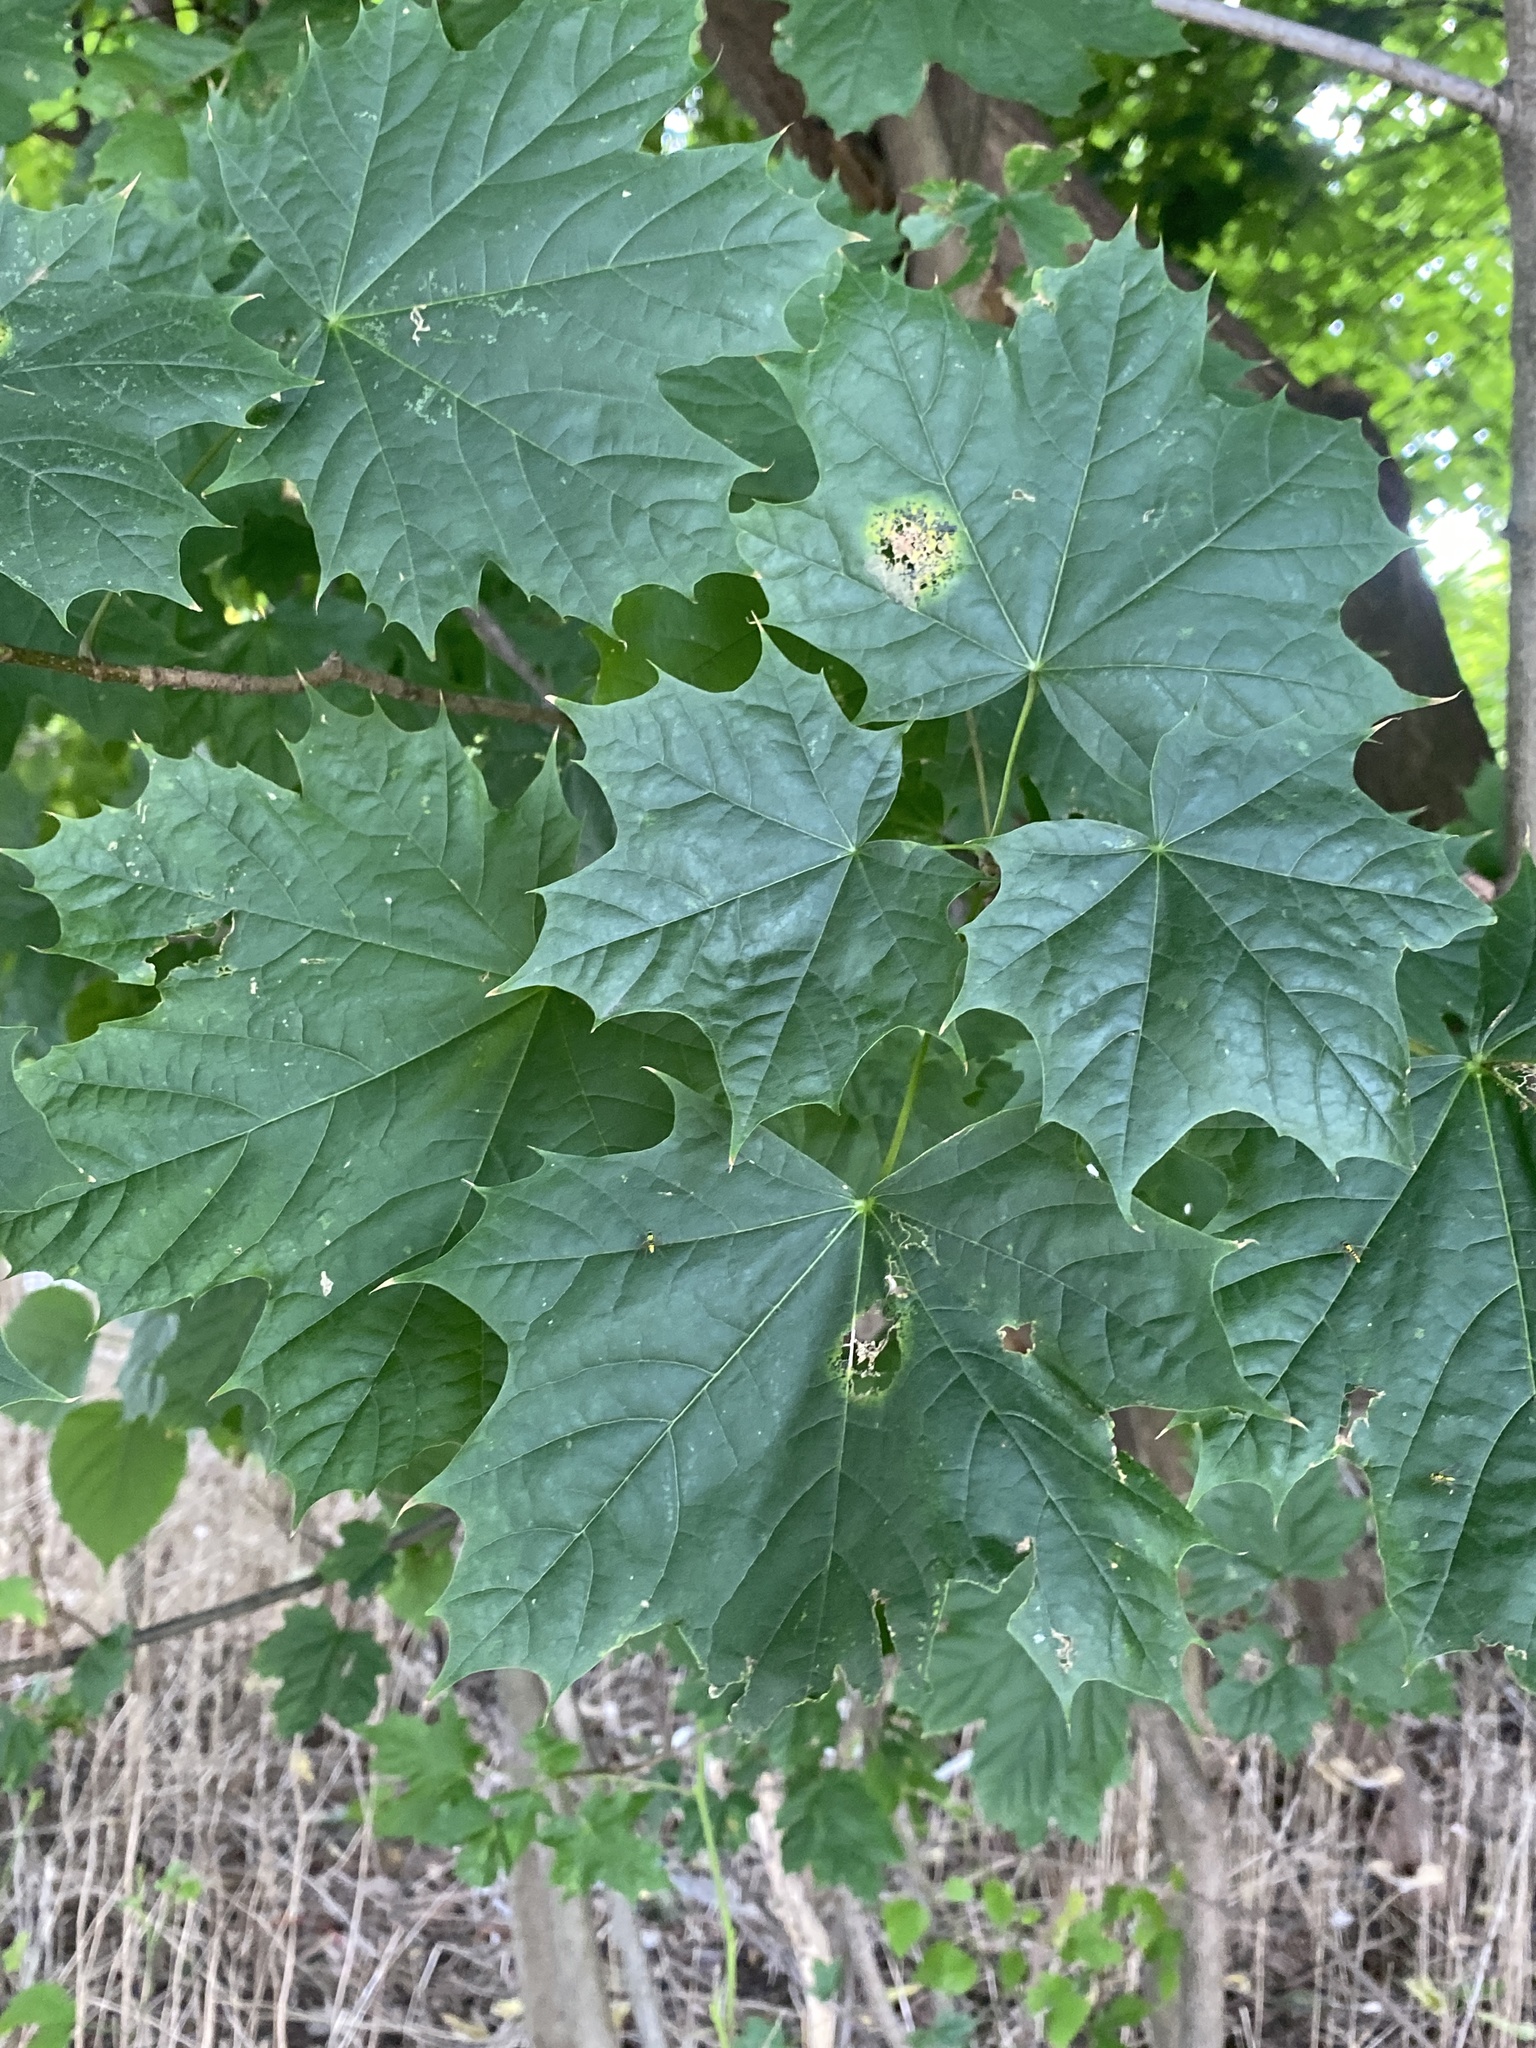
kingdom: Plantae
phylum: Tracheophyta
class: Magnoliopsida
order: Sapindales
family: Sapindaceae
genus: Acer
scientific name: Acer platanoides
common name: Norway maple
